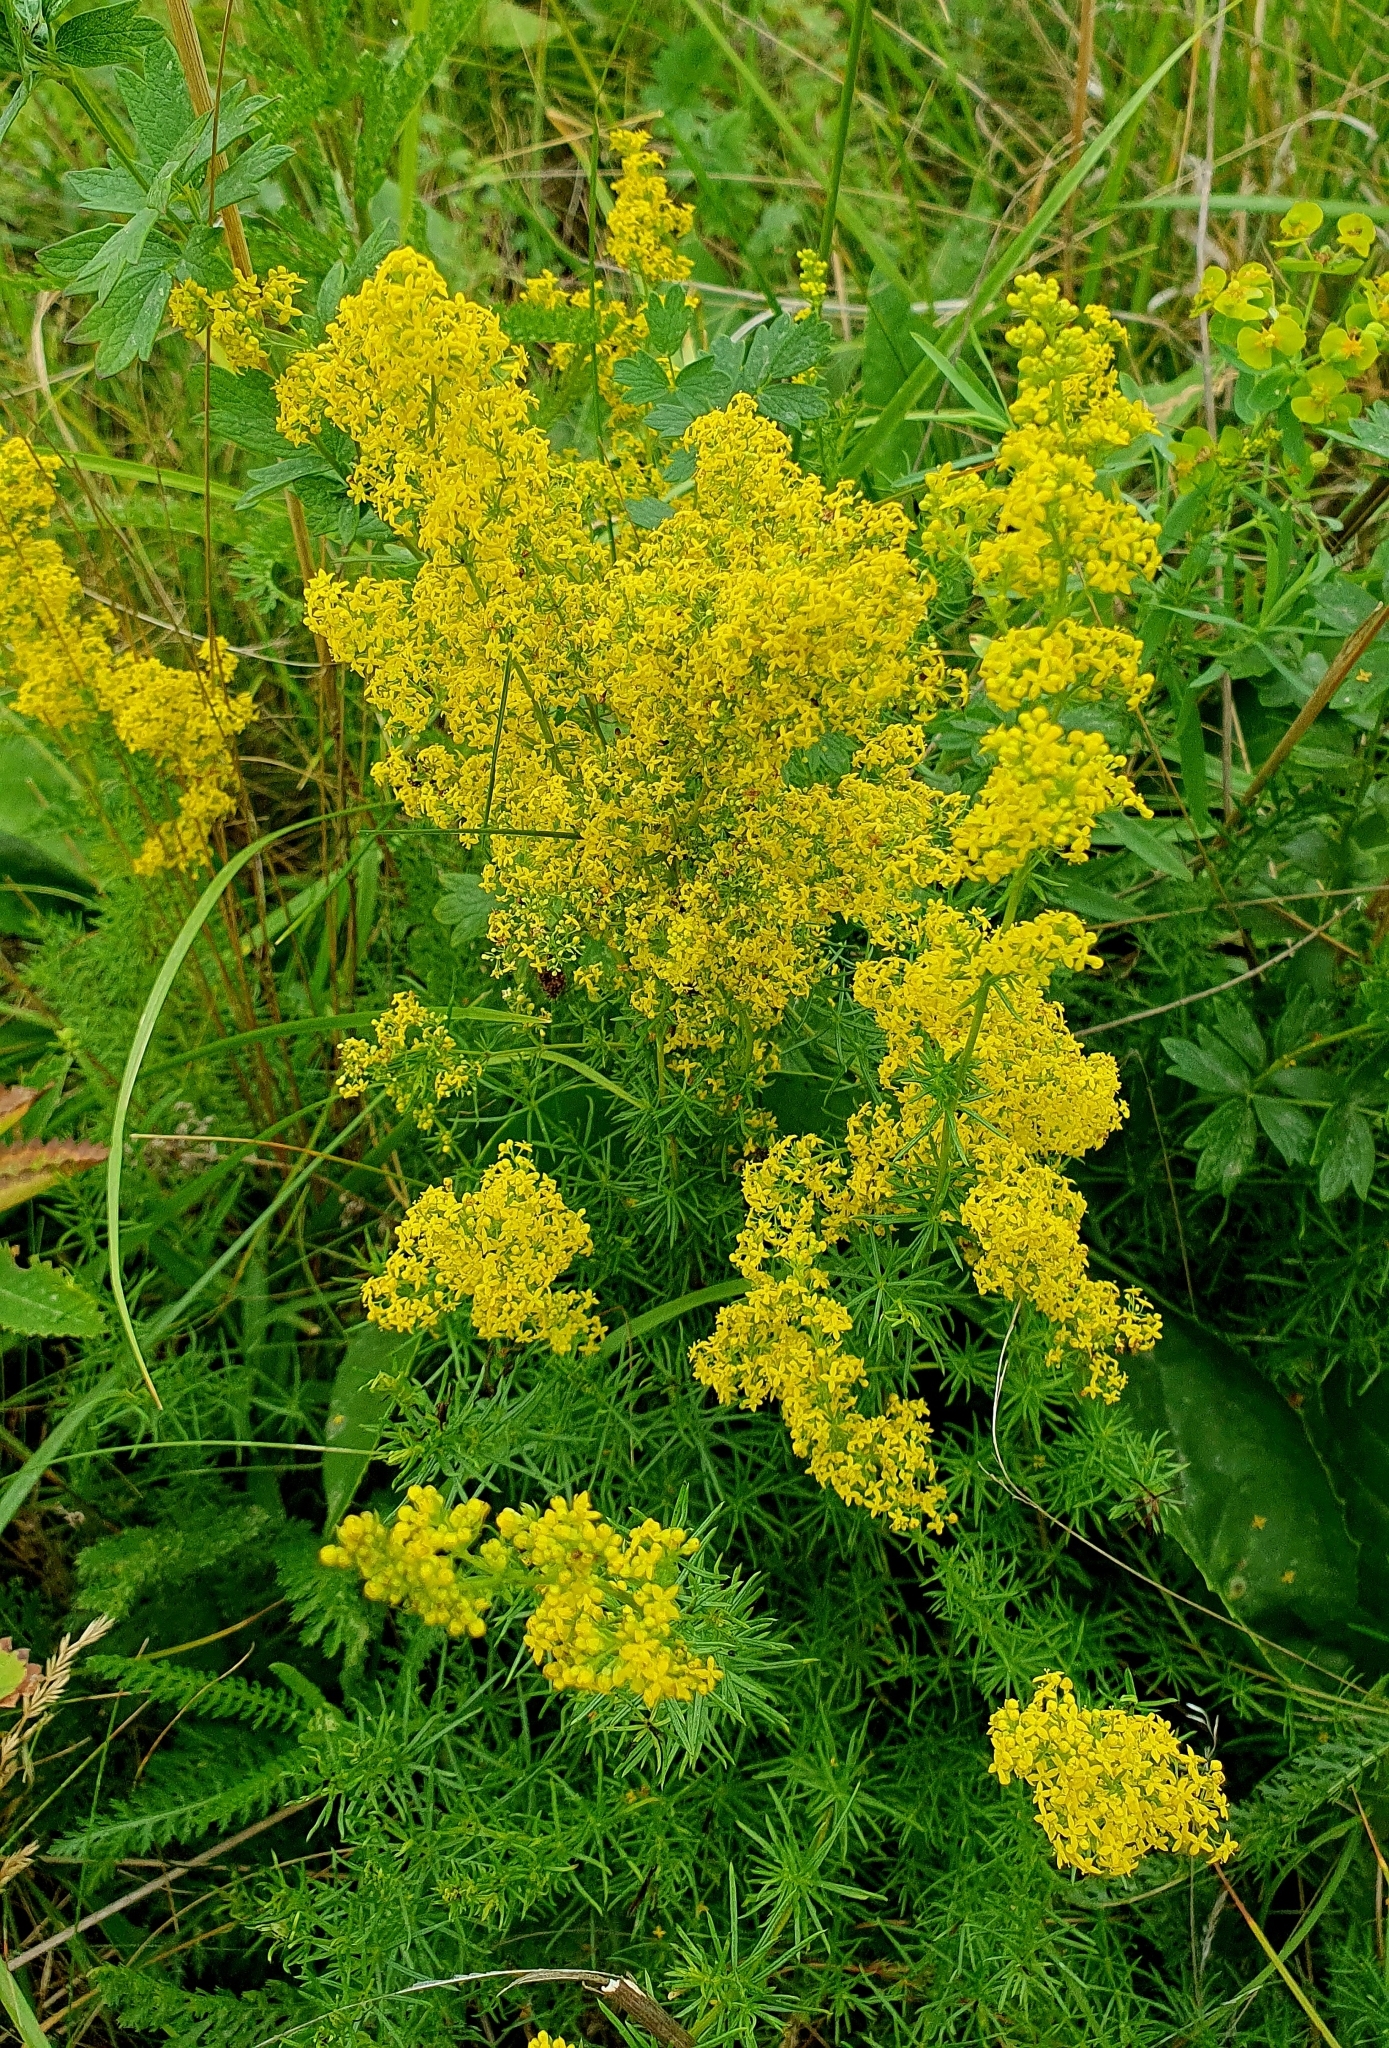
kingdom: Plantae
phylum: Tracheophyta
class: Magnoliopsida
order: Gentianales
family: Rubiaceae
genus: Galium
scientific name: Galium verum
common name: Lady's bedstraw
